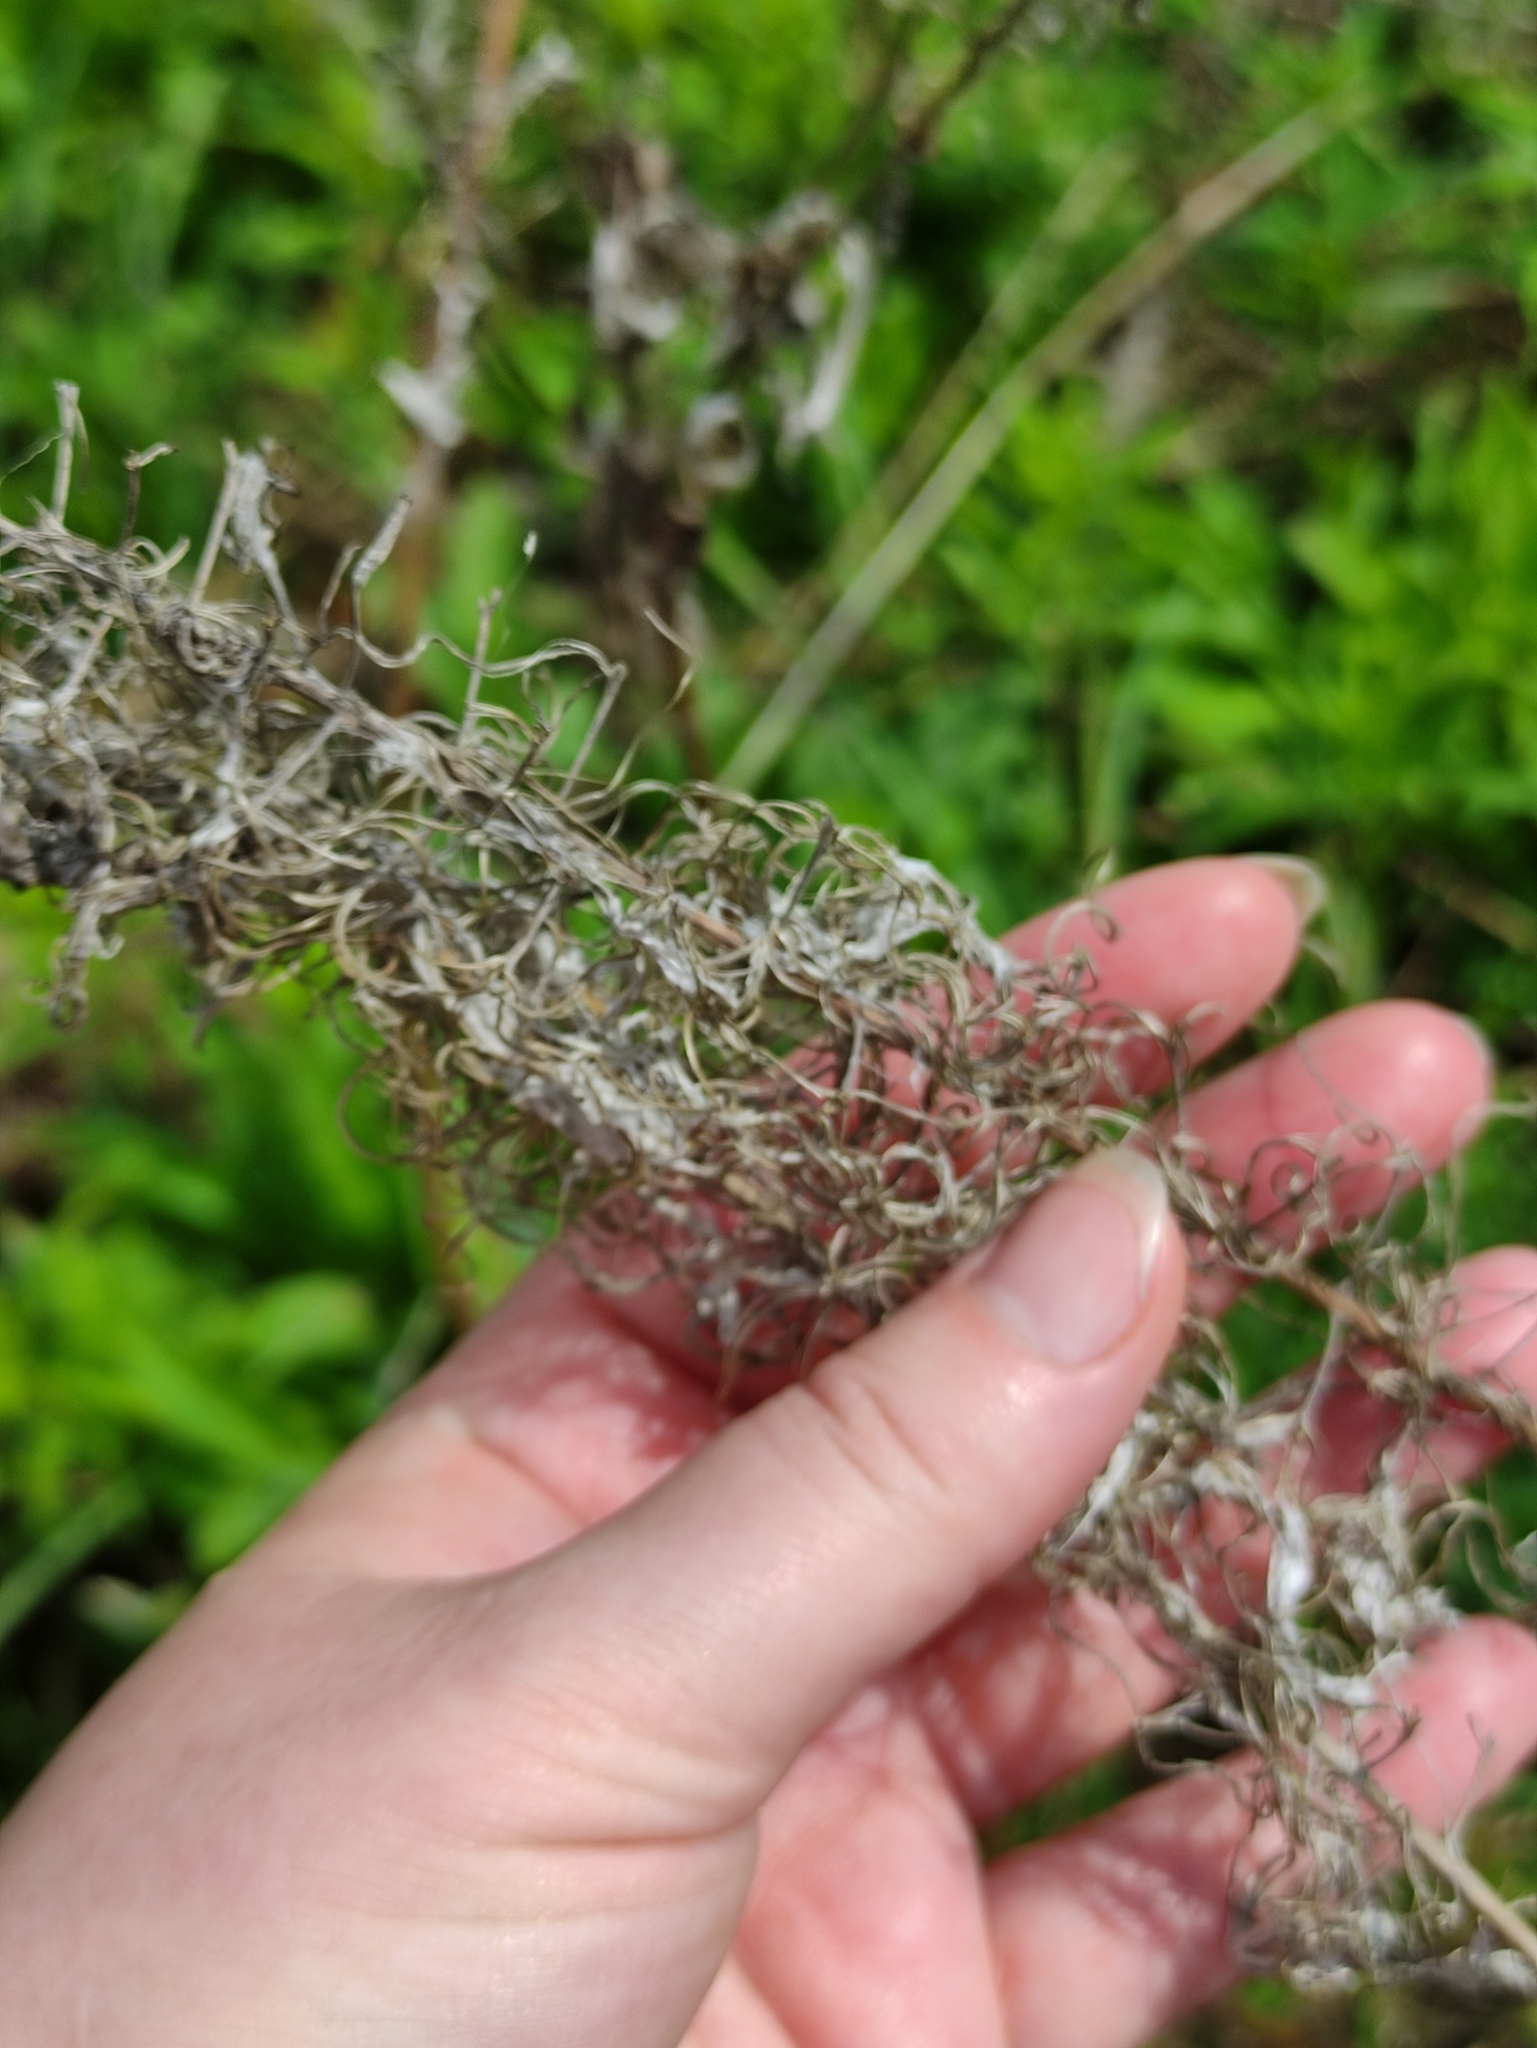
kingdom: Plantae
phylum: Tracheophyta
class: Magnoliopsida
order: Myrtales
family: Onagraceae
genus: Chamaenerion
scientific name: Chamaenerion angustifolium
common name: Fireweed
